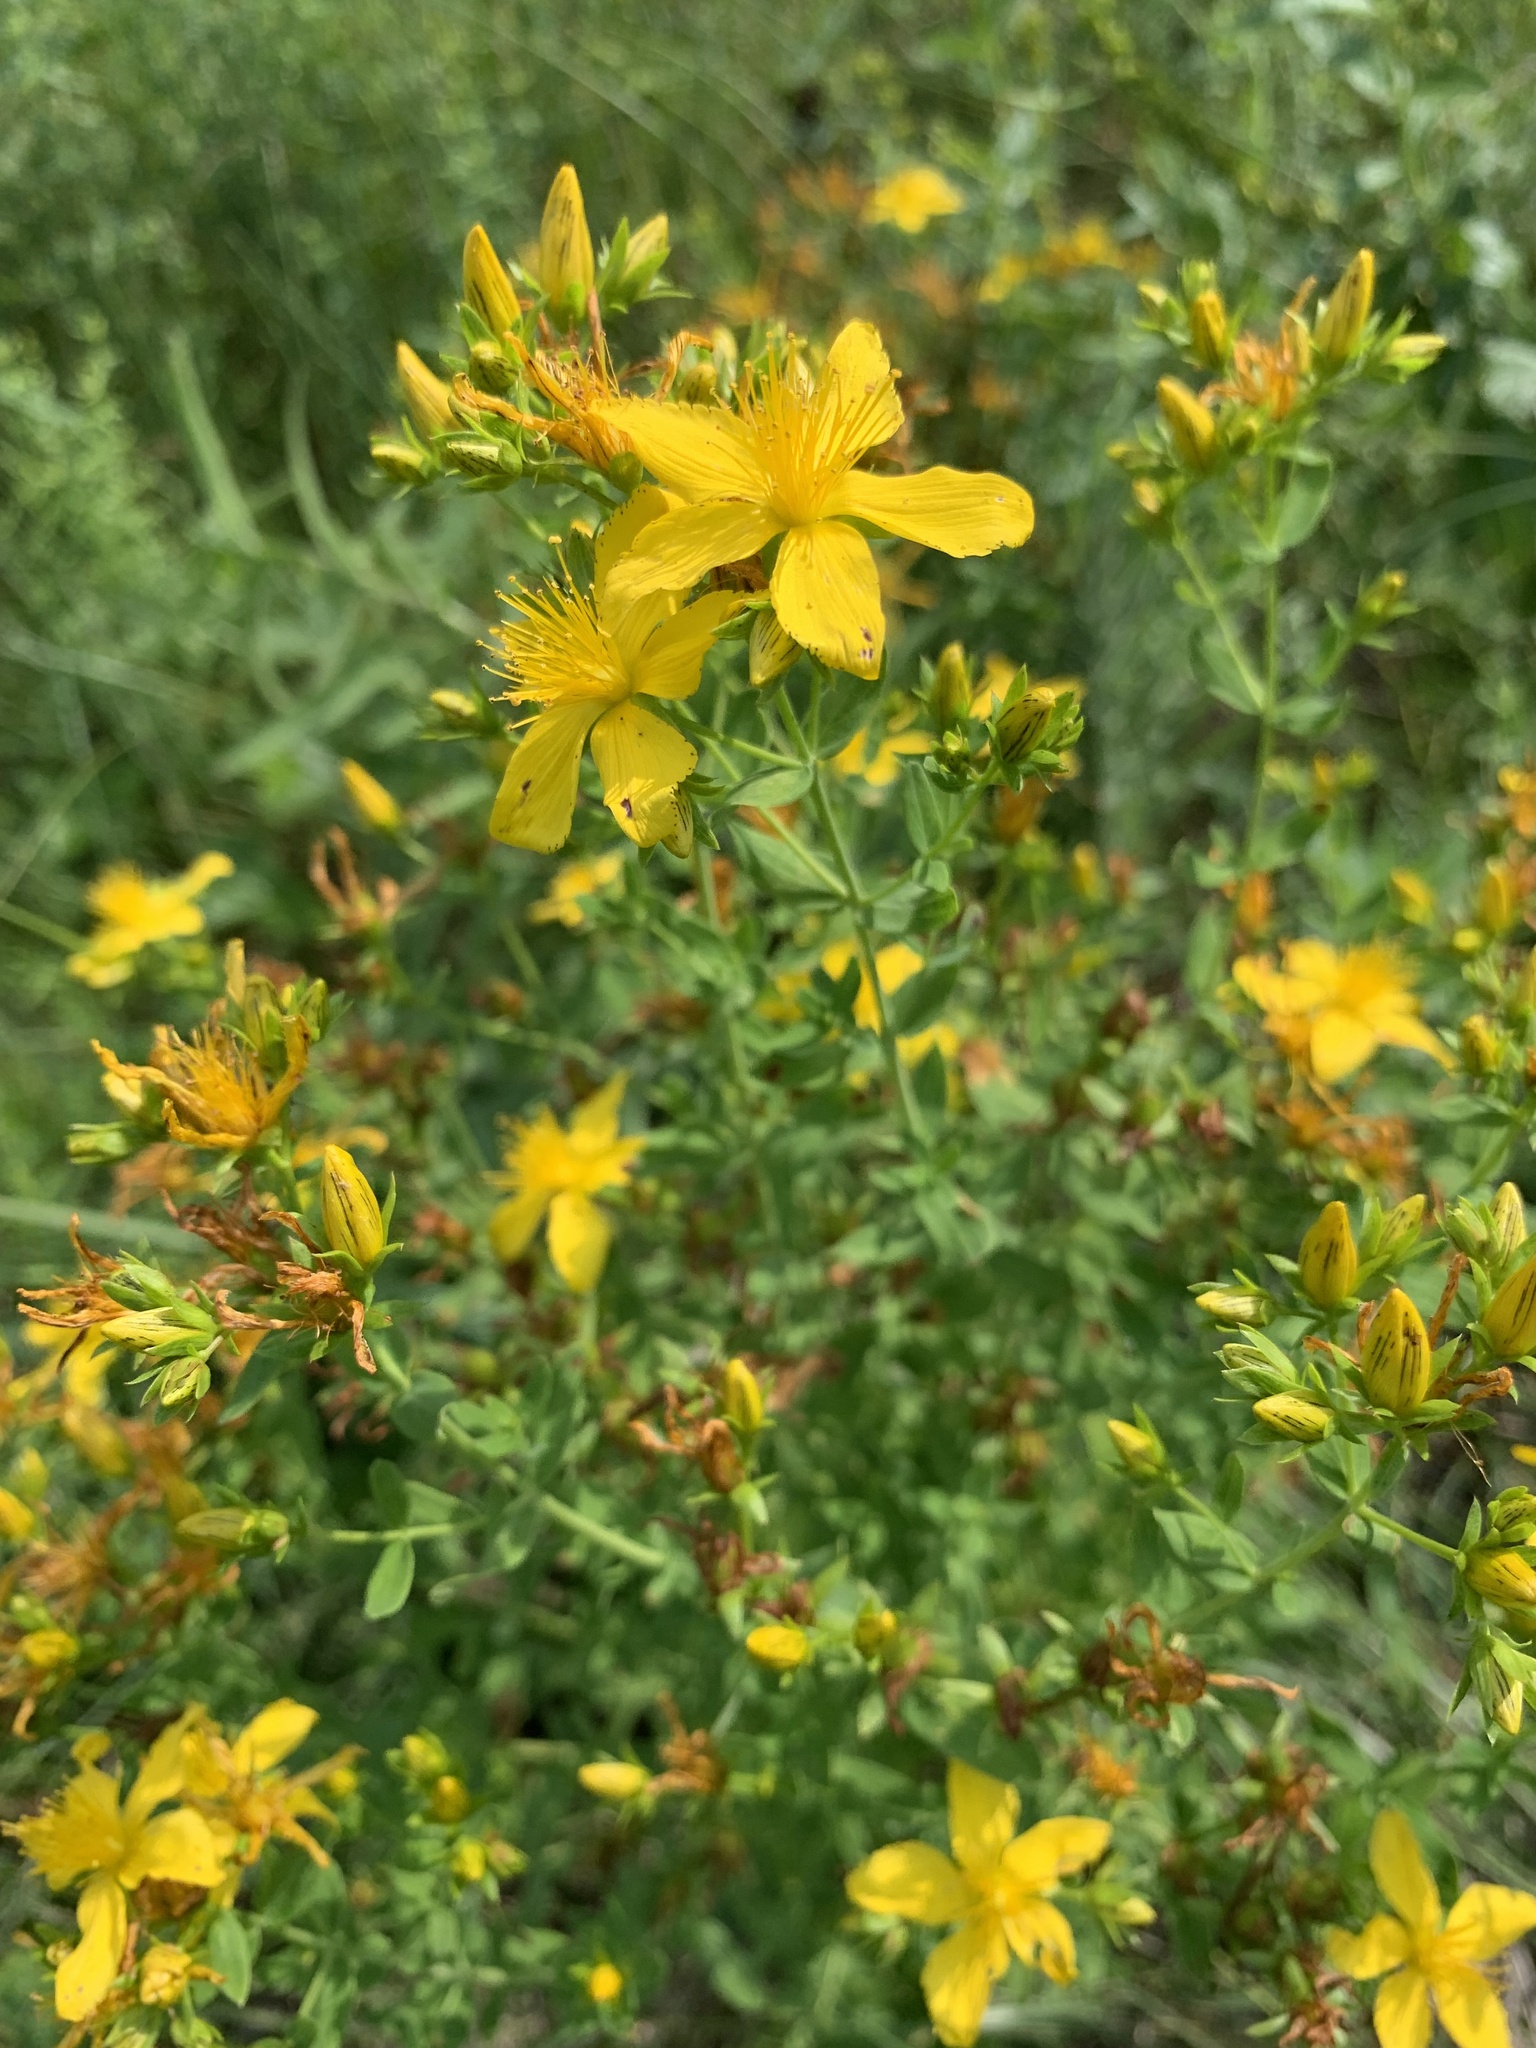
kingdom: Plantae
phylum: Tracheophyta
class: Magnoliopsida
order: Malpighiales
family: Hypericaceae
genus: Hypericum
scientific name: Hypericum perforatum
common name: Common st. johnswort
